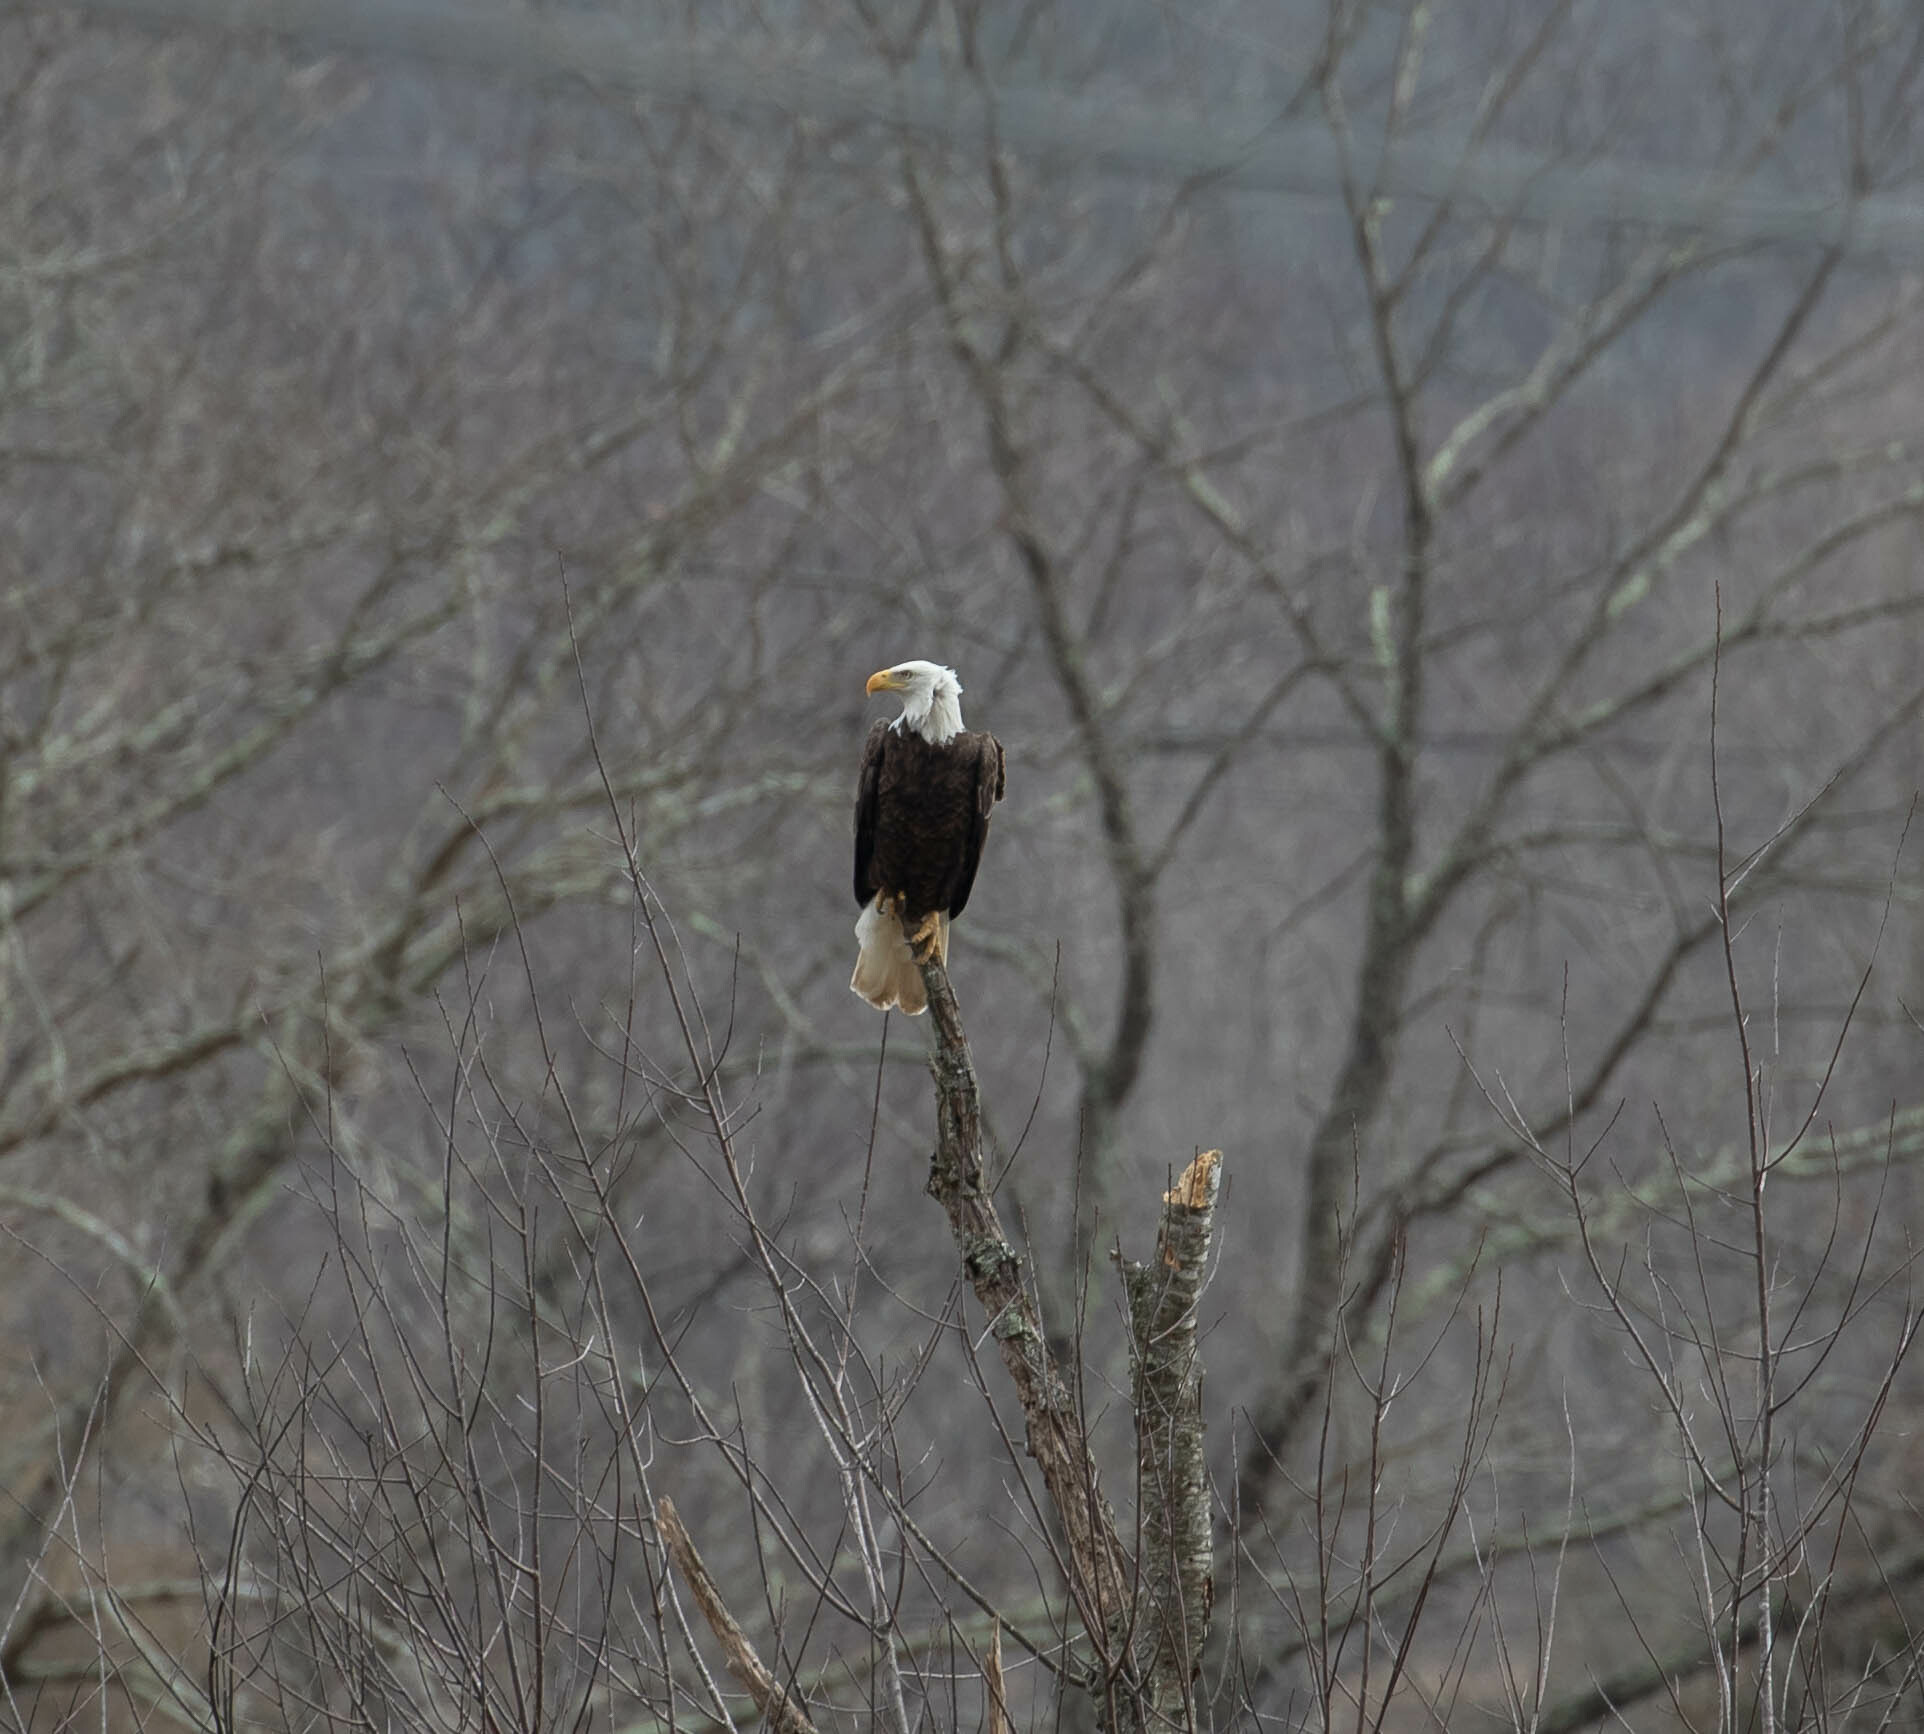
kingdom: Animalia
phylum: Chordata
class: Aves
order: Accipitriformes
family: Accipitridae
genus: Haliaeetus
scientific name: Haliaeetus leucocephalus
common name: Bald eagle
